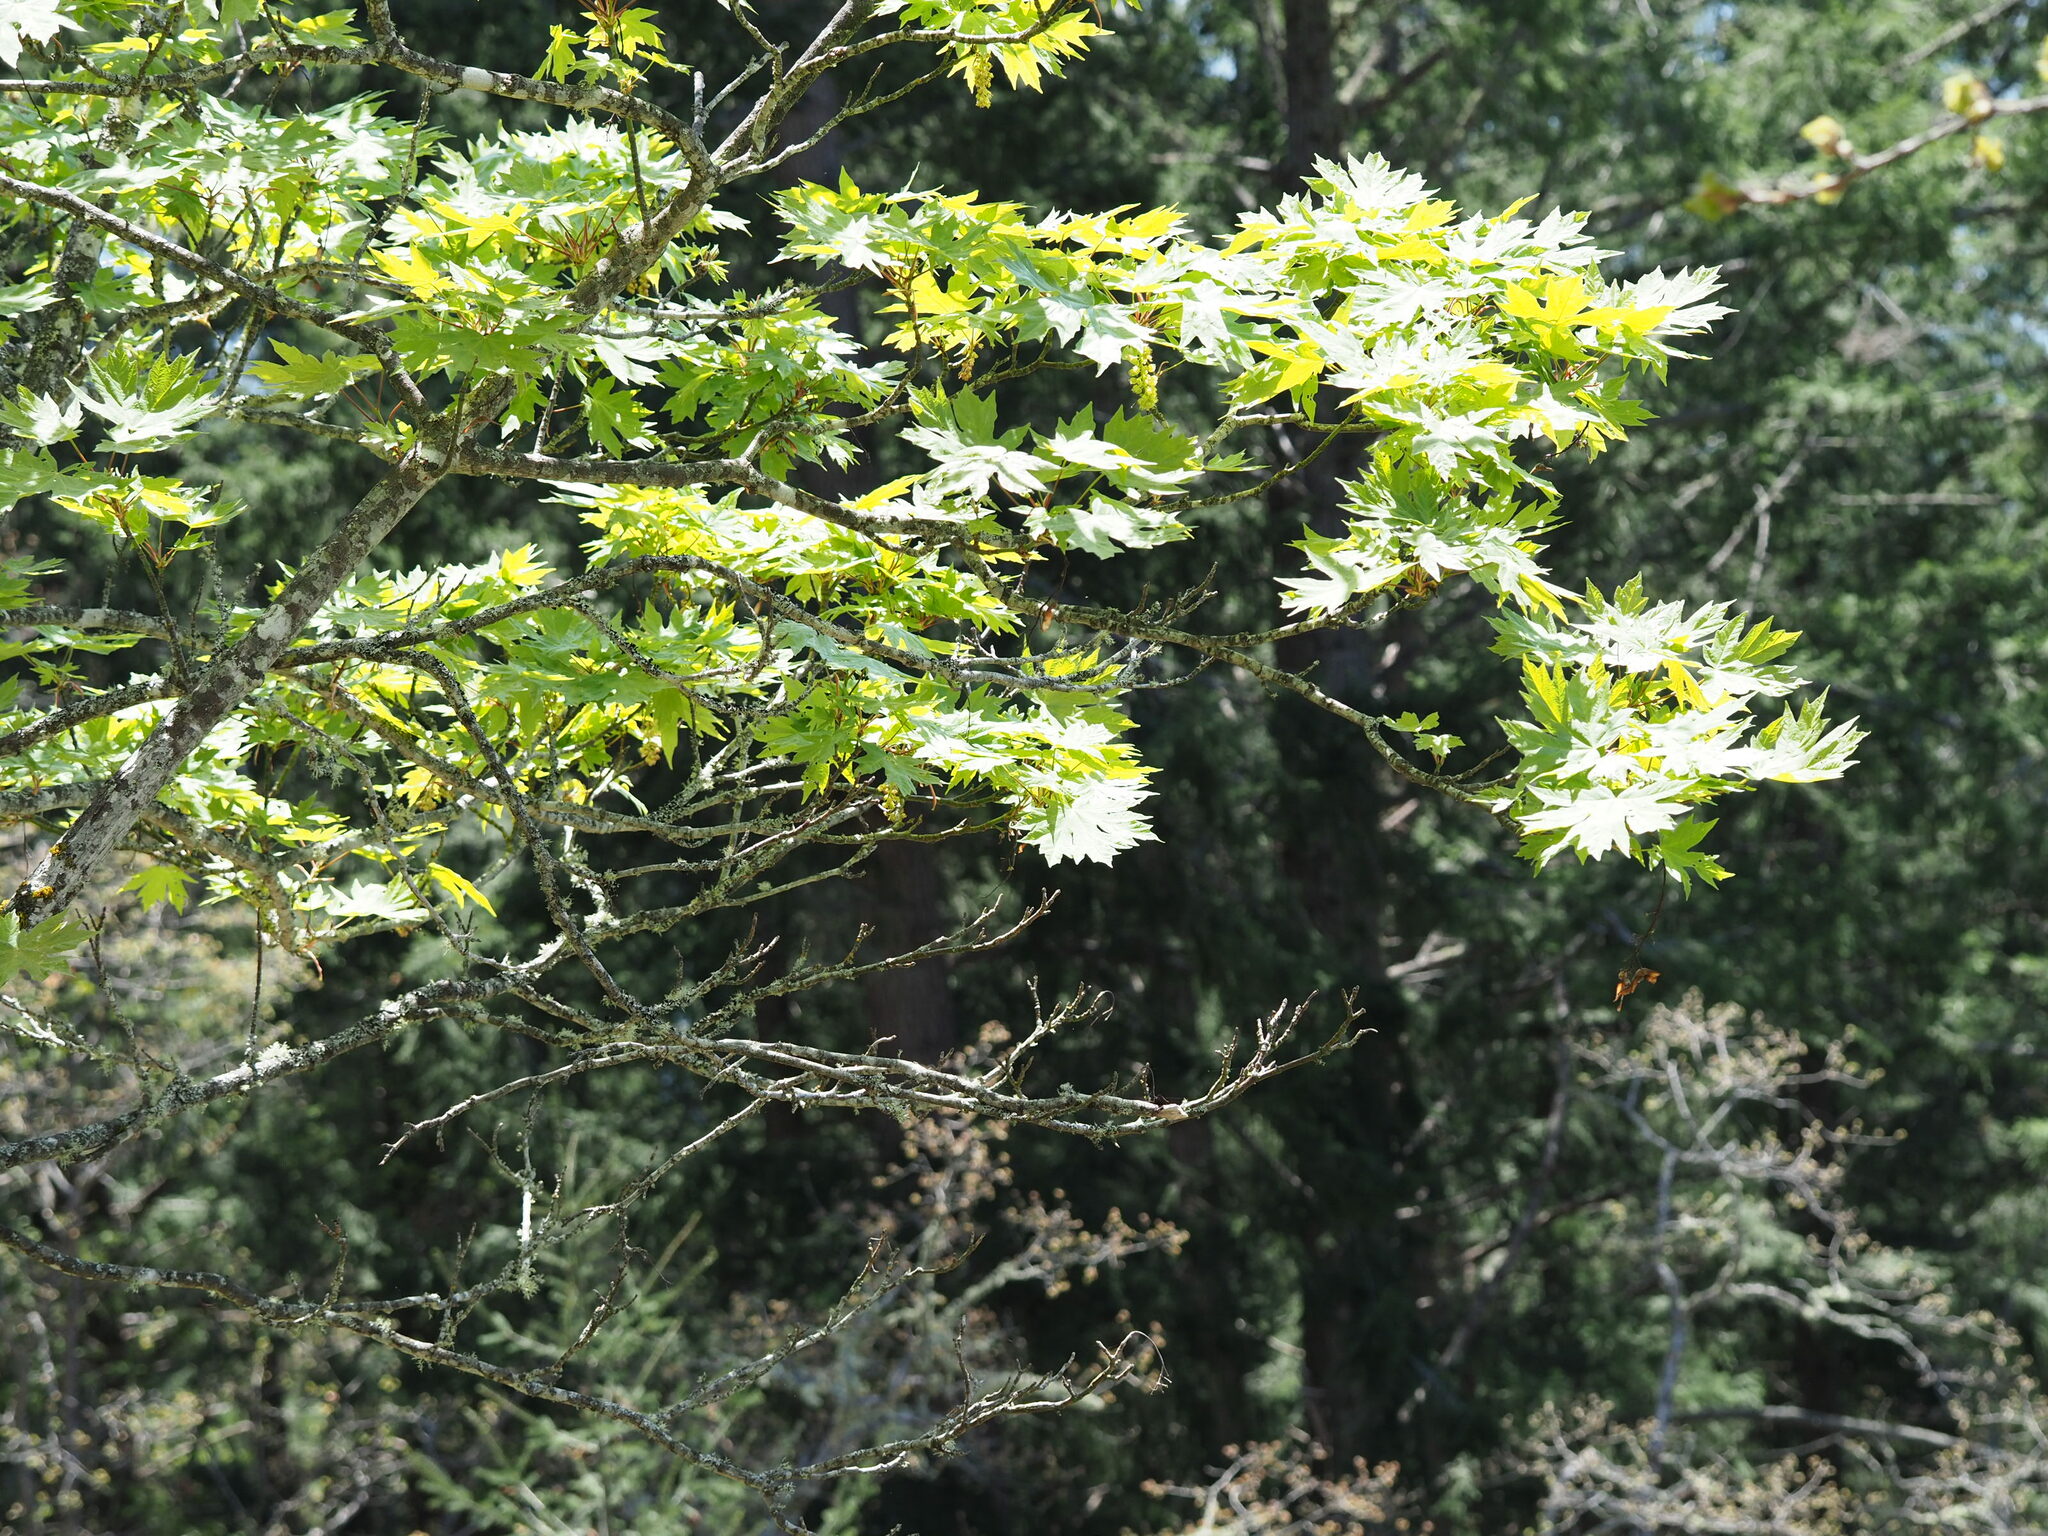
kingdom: Plantae
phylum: Tracheophyta
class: Magnoliopsida
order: Sapindales
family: Sapindaceae
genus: Acer
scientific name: Acer macrophyllum
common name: Oregon maple
